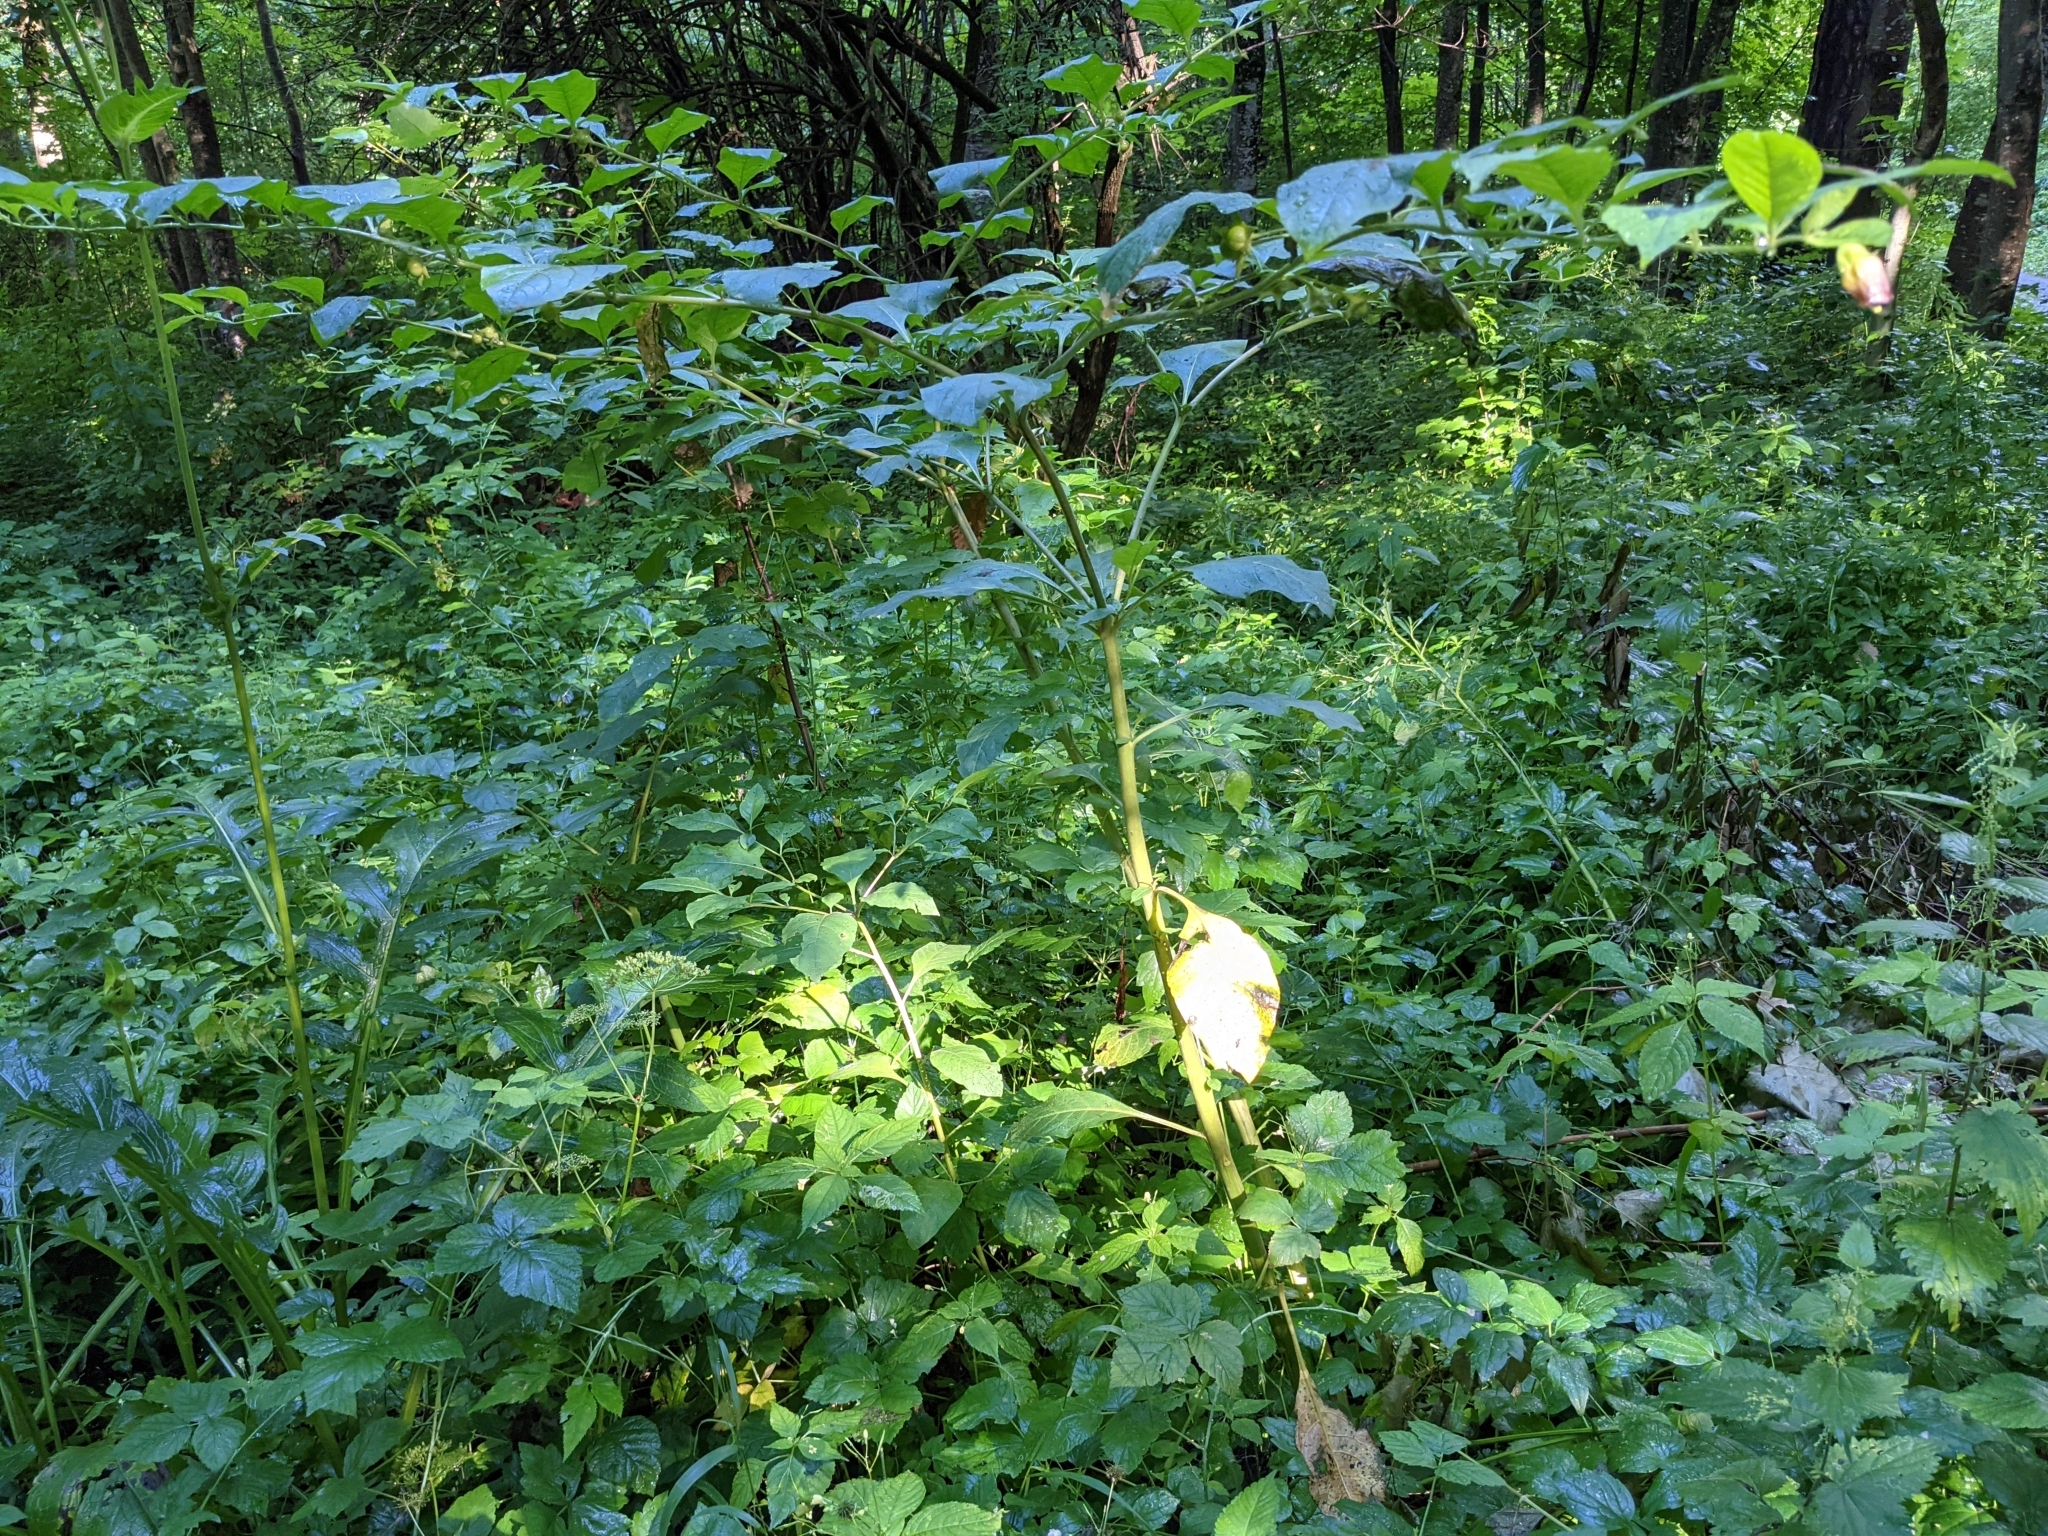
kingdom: Plantae
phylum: Tracheophyta
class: Magnoliopsida
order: Solanales
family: Solanaceae
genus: Atropa
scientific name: Atropa belladonna
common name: Deadly nightshade
